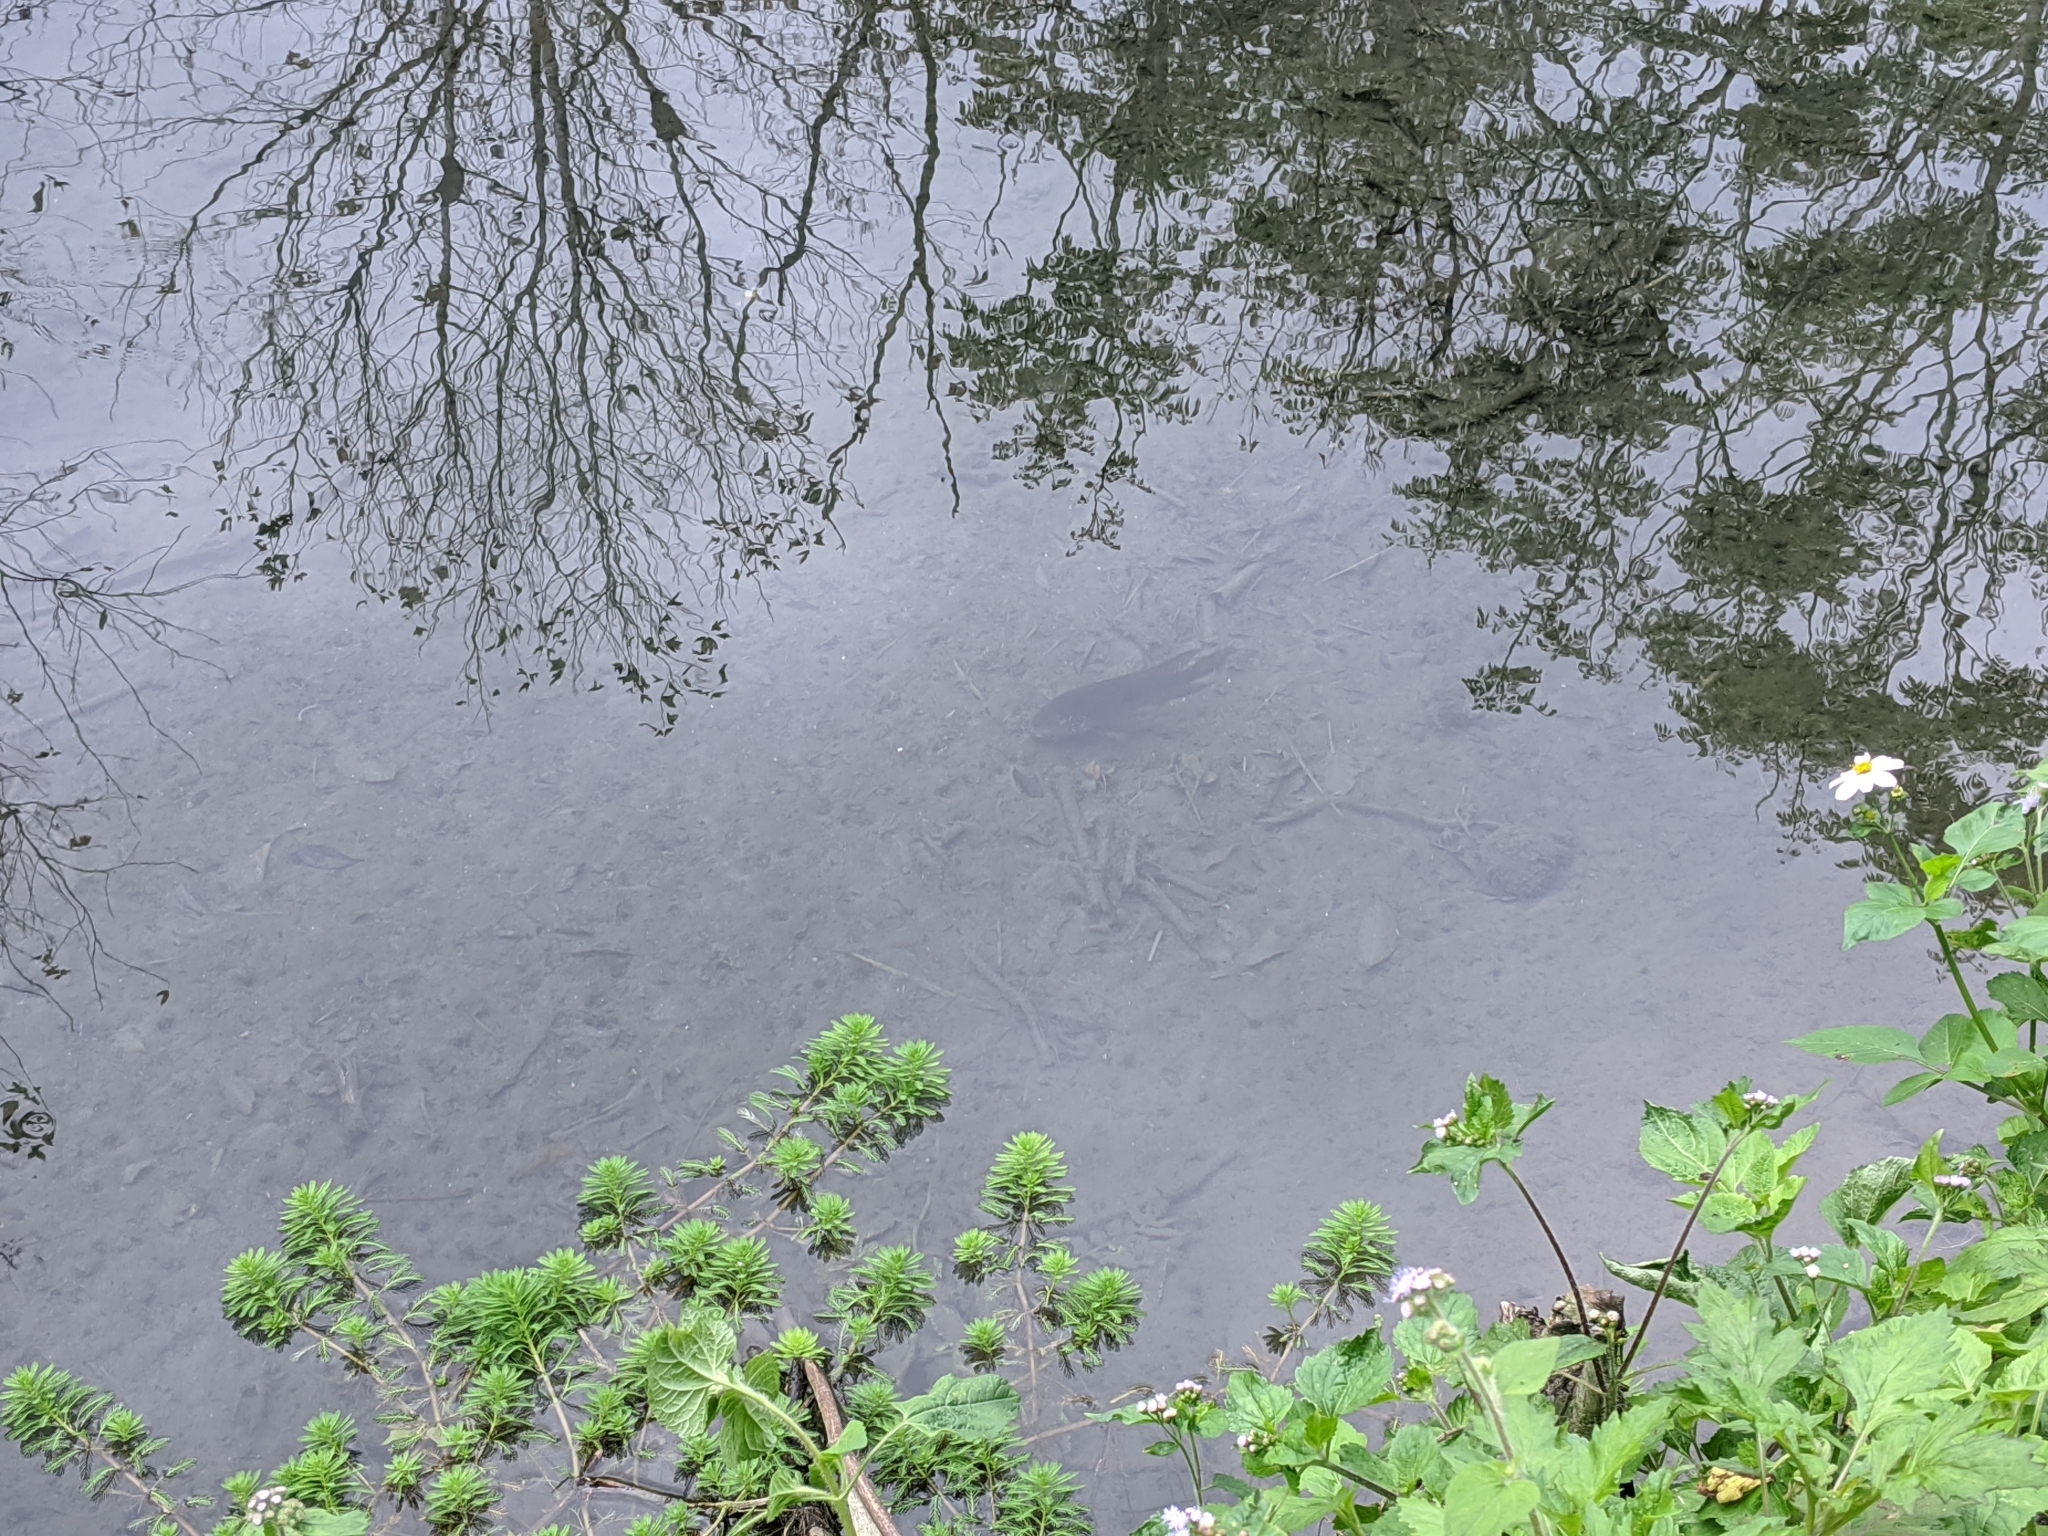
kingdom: Animalia
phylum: Chordata
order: Perciformes
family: Cichlidae
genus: Geophagus
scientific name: Geophagus brasiliensis
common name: Braziliensis
